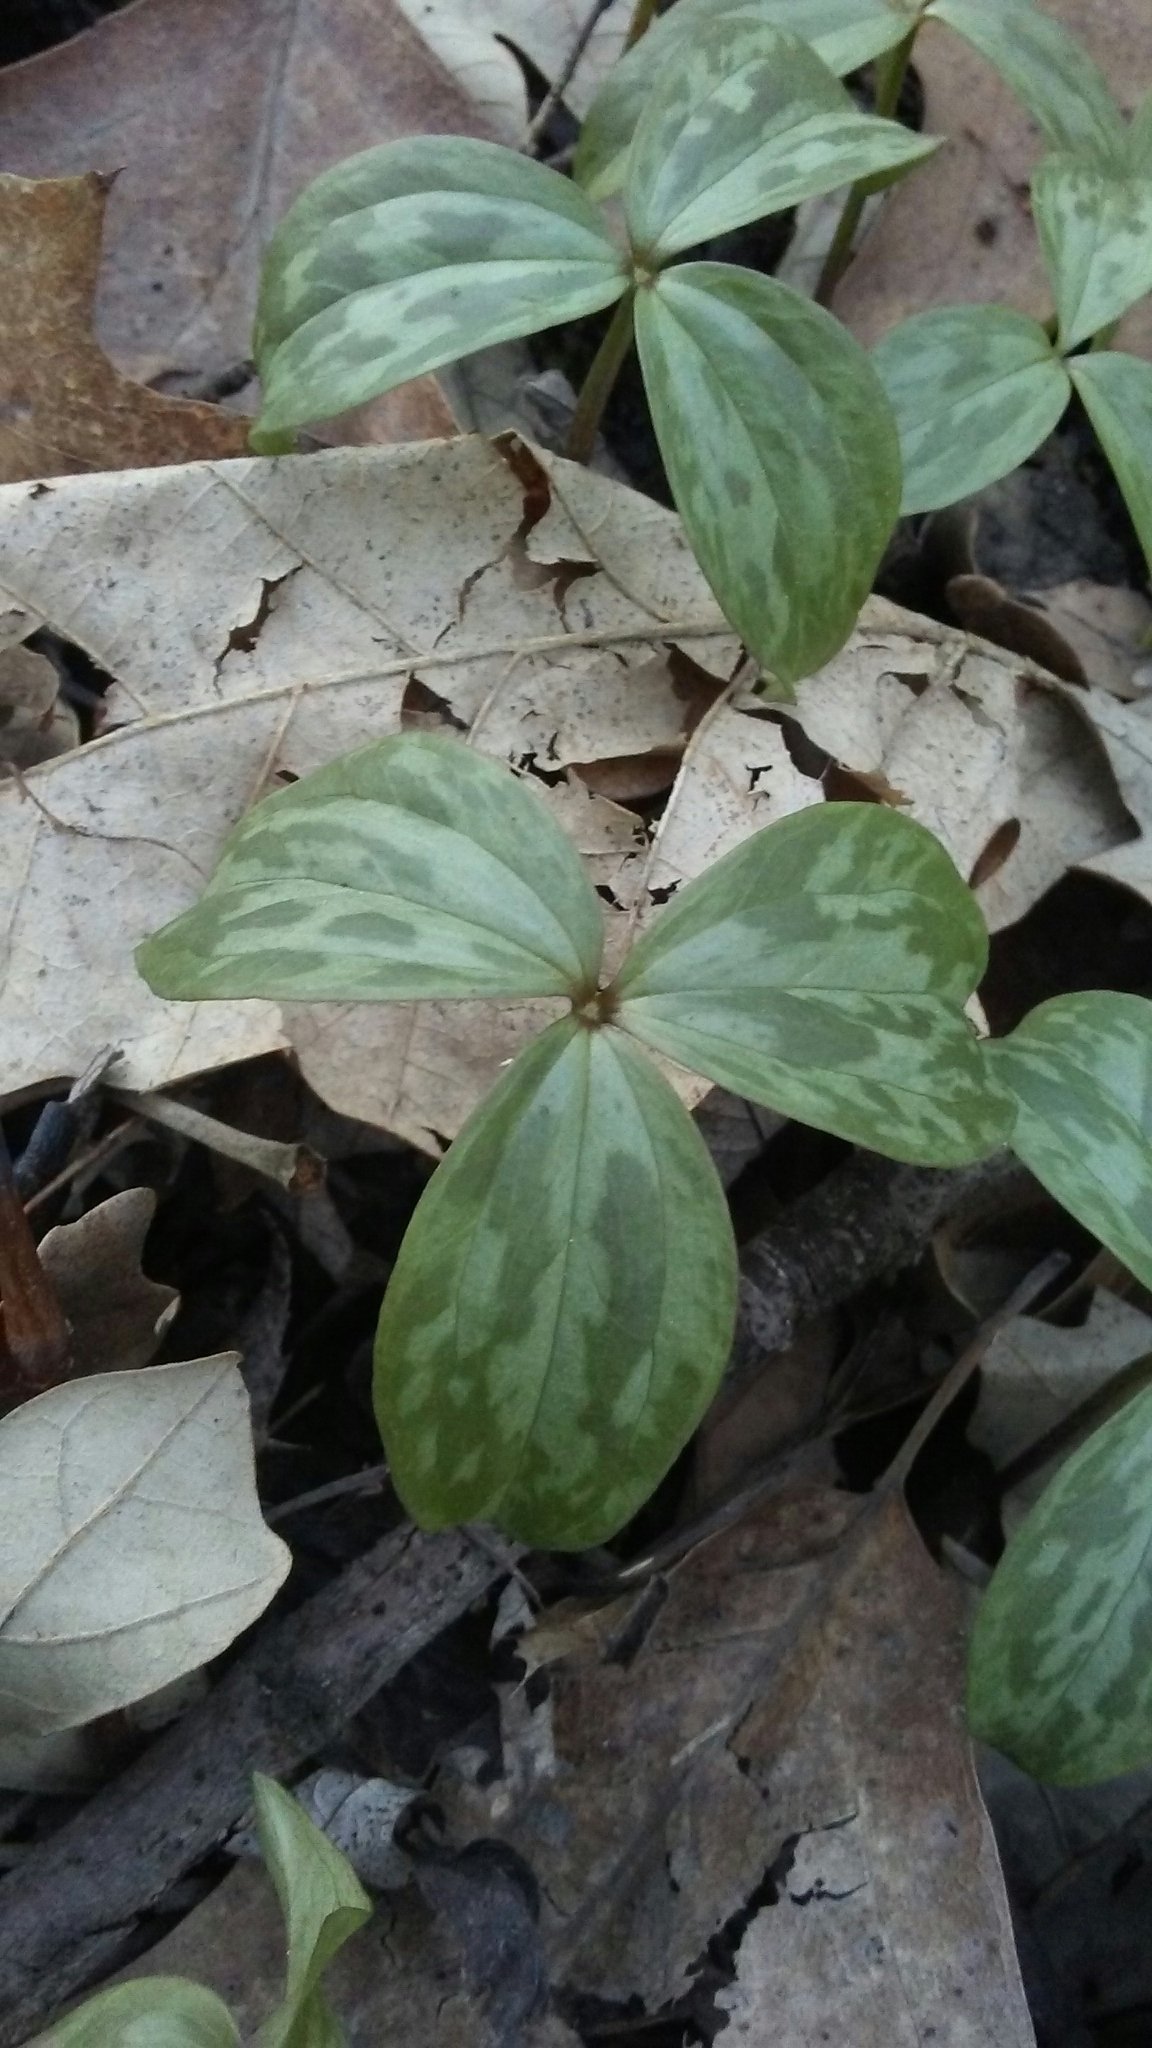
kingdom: Plantae
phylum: Tracheophyta
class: Liliopsida
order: Liliales
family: Melanthiaceae
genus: Trillium
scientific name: Trillium recurvatum
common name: Bloody butcher
